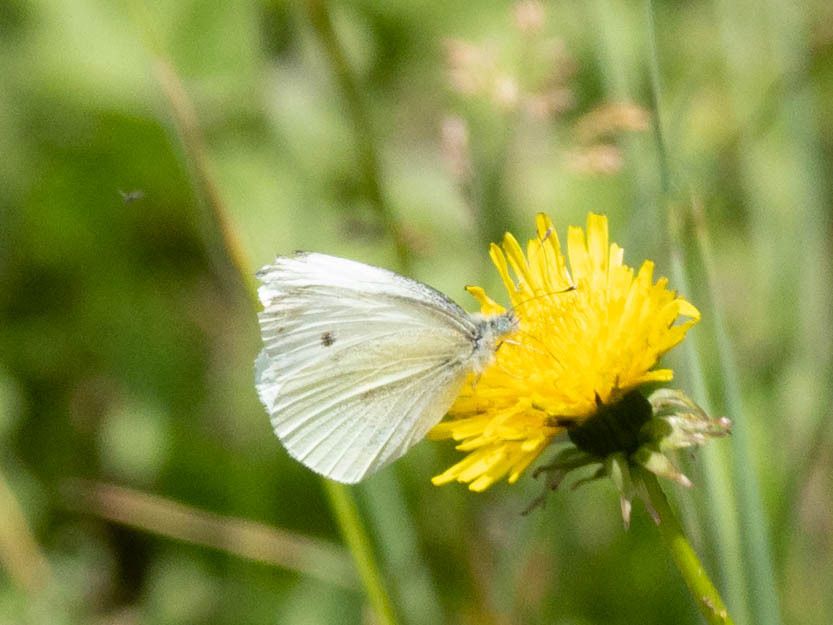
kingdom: Animalia
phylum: Arthropoda
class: Insecta
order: Lepidoptera
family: Pieridae
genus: Pieris
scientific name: Pieris rapae
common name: Small white
